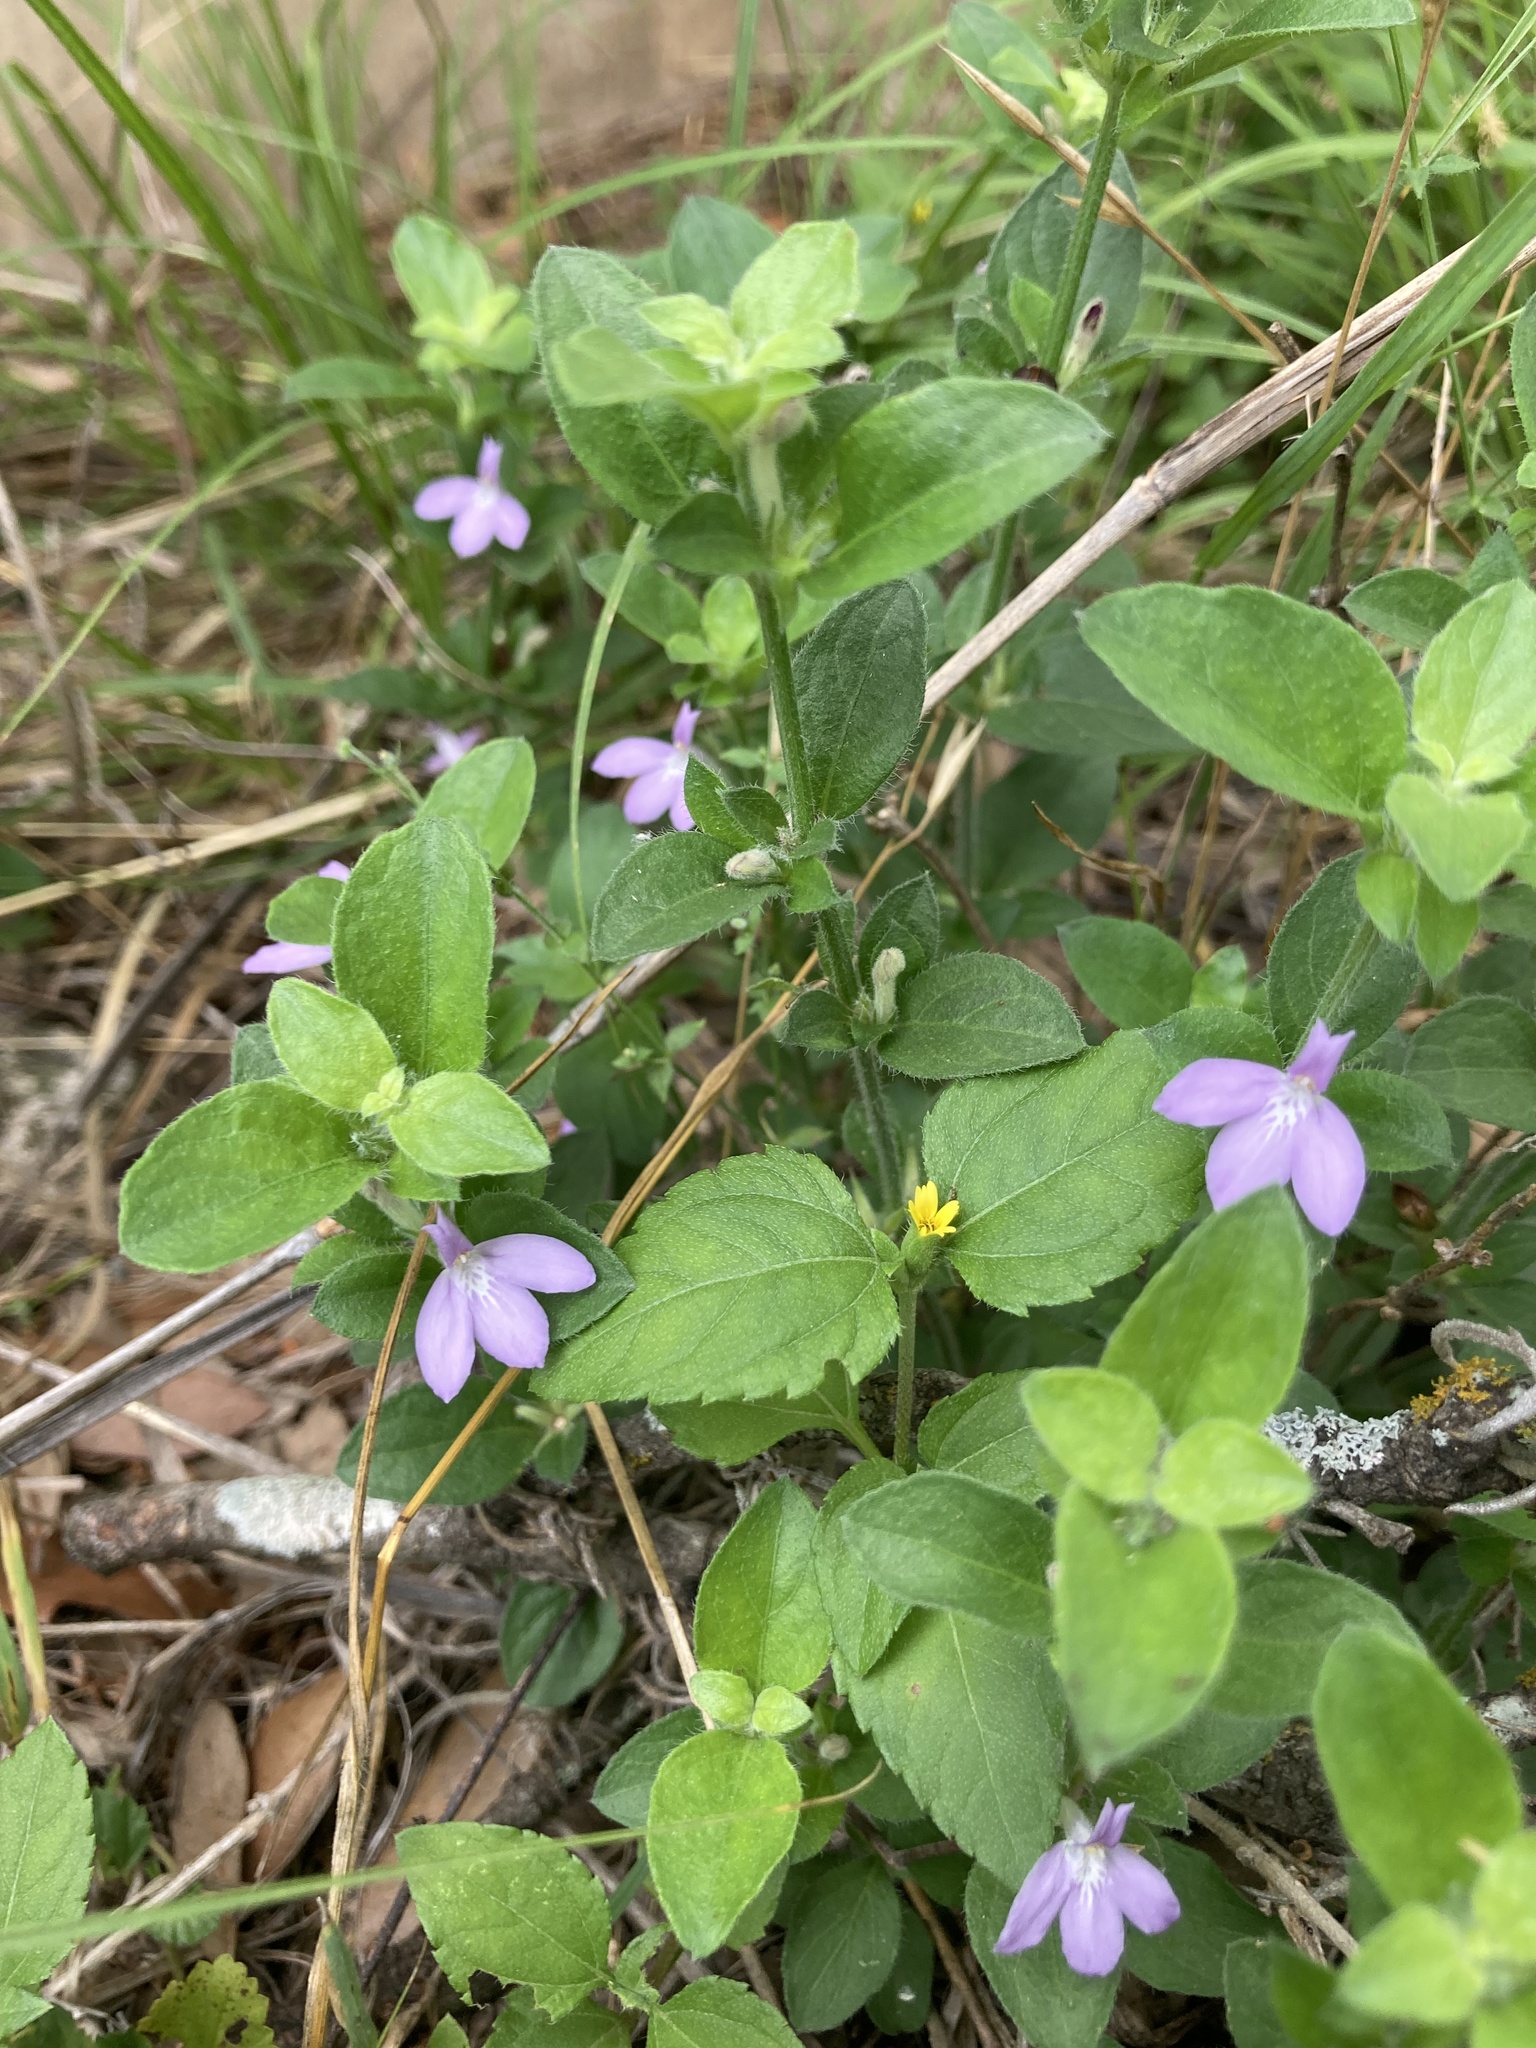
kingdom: Plantae
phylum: Tracheophyta
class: Magnoliopsida
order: Lamiales
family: Acanthaceae
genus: Justicia
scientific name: Justicia pilosella
